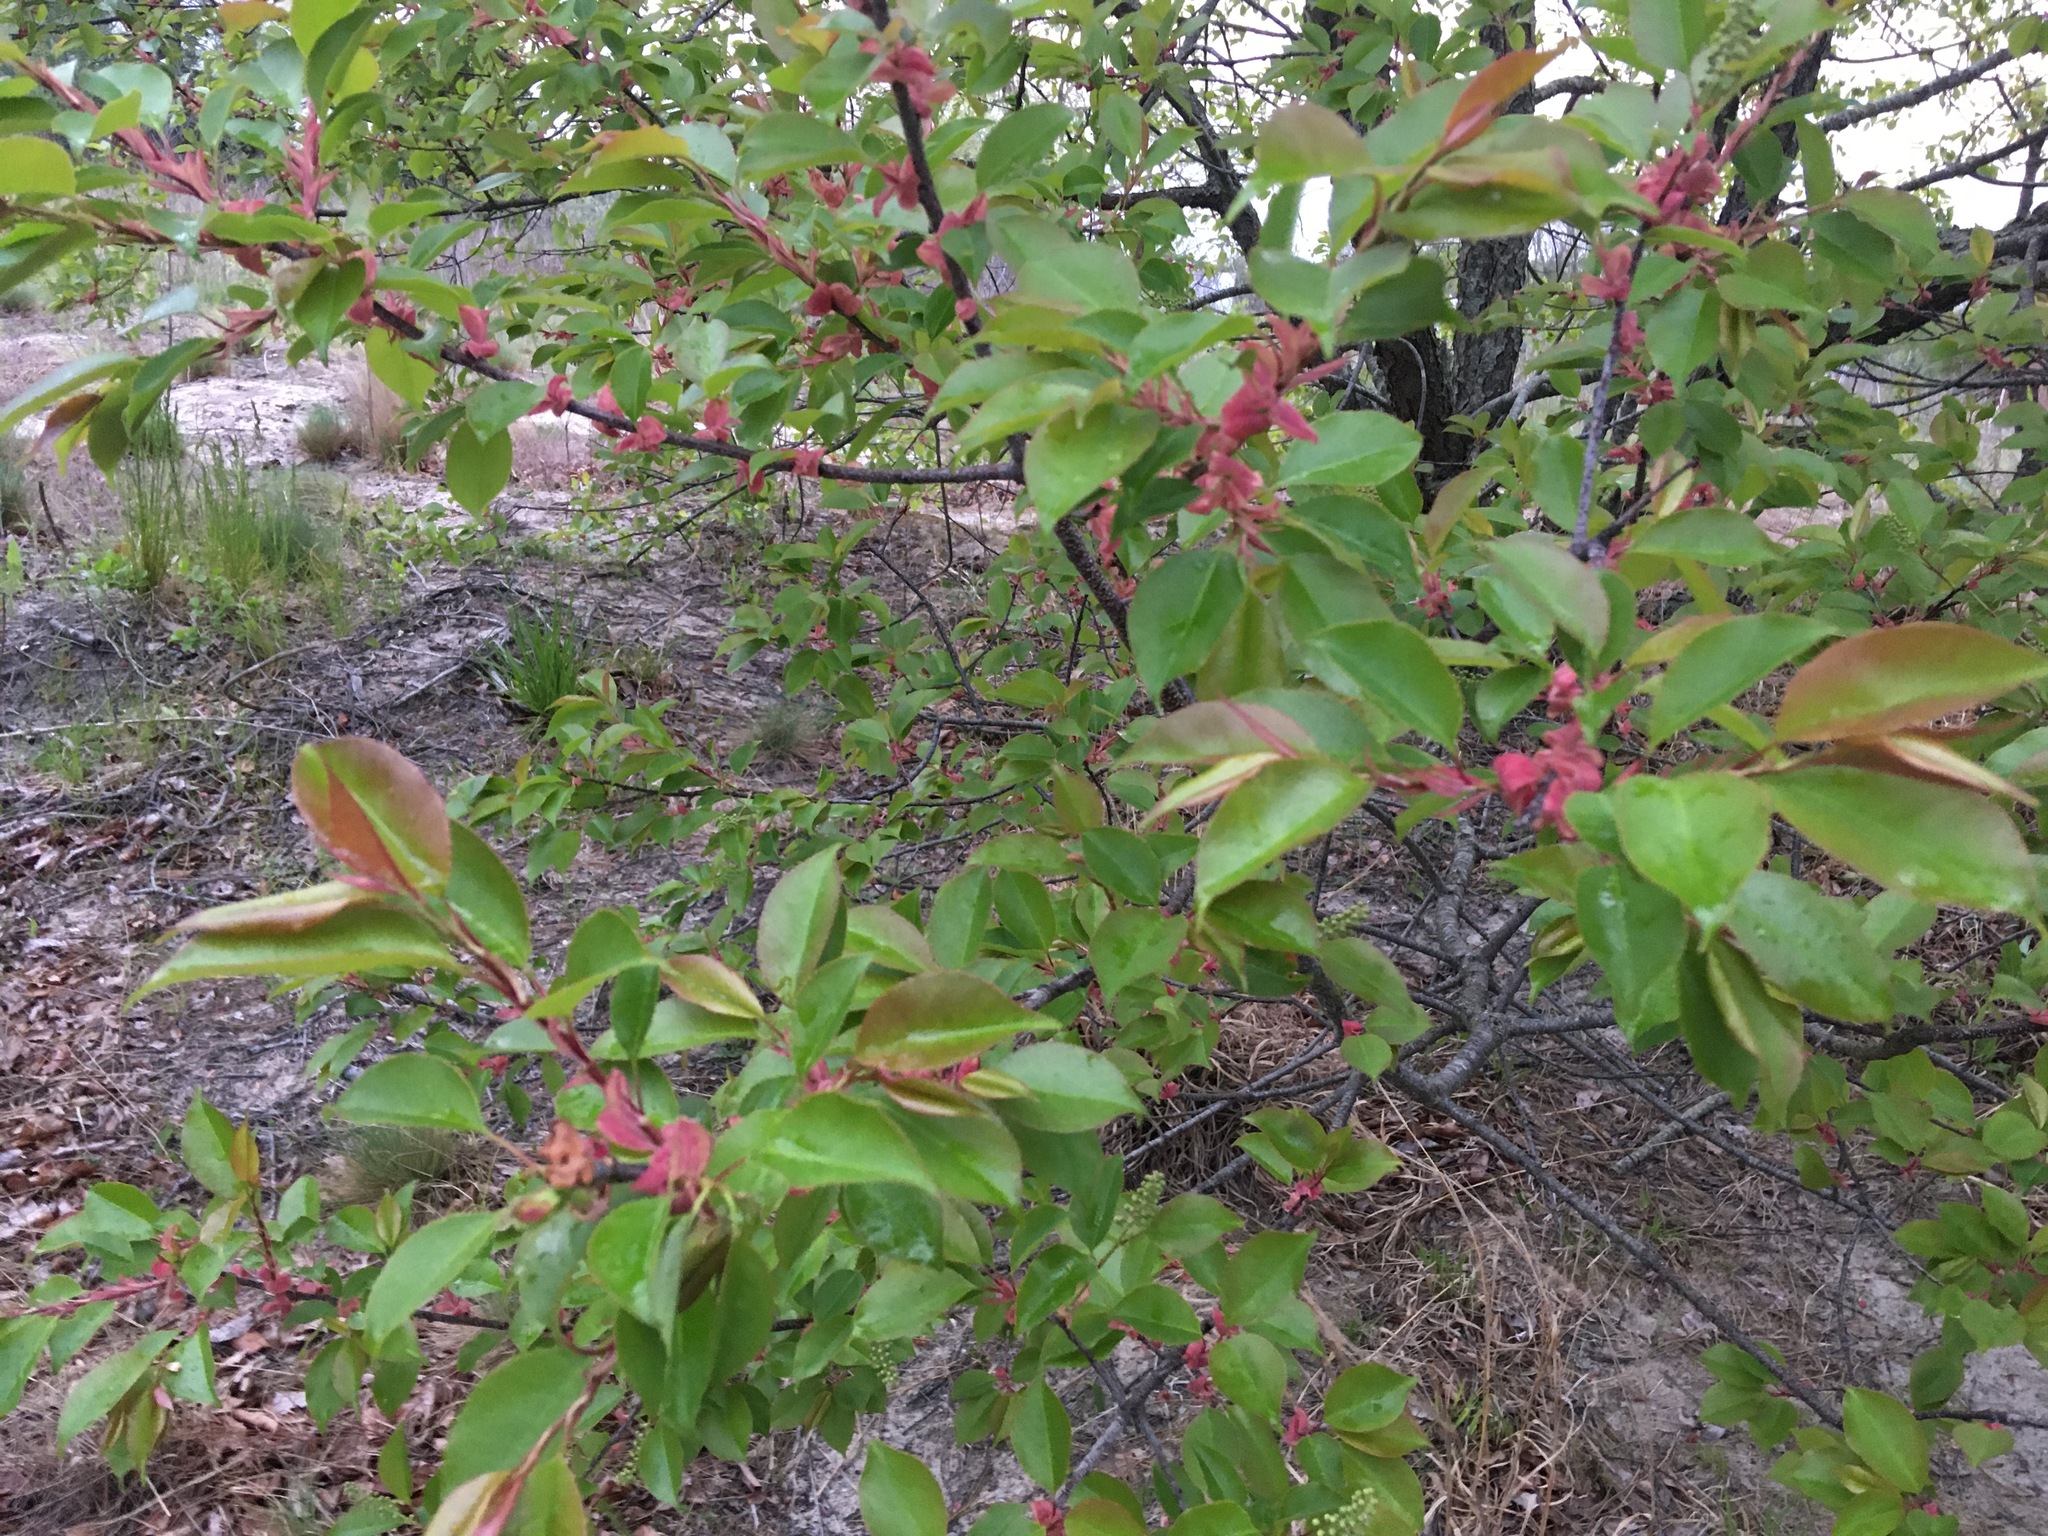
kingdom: Plantae
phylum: Tracheophyta
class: Magnoliopsida
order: Rosales
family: Rosaceae
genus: Prunus
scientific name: Prunus serotina
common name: Black cherry
